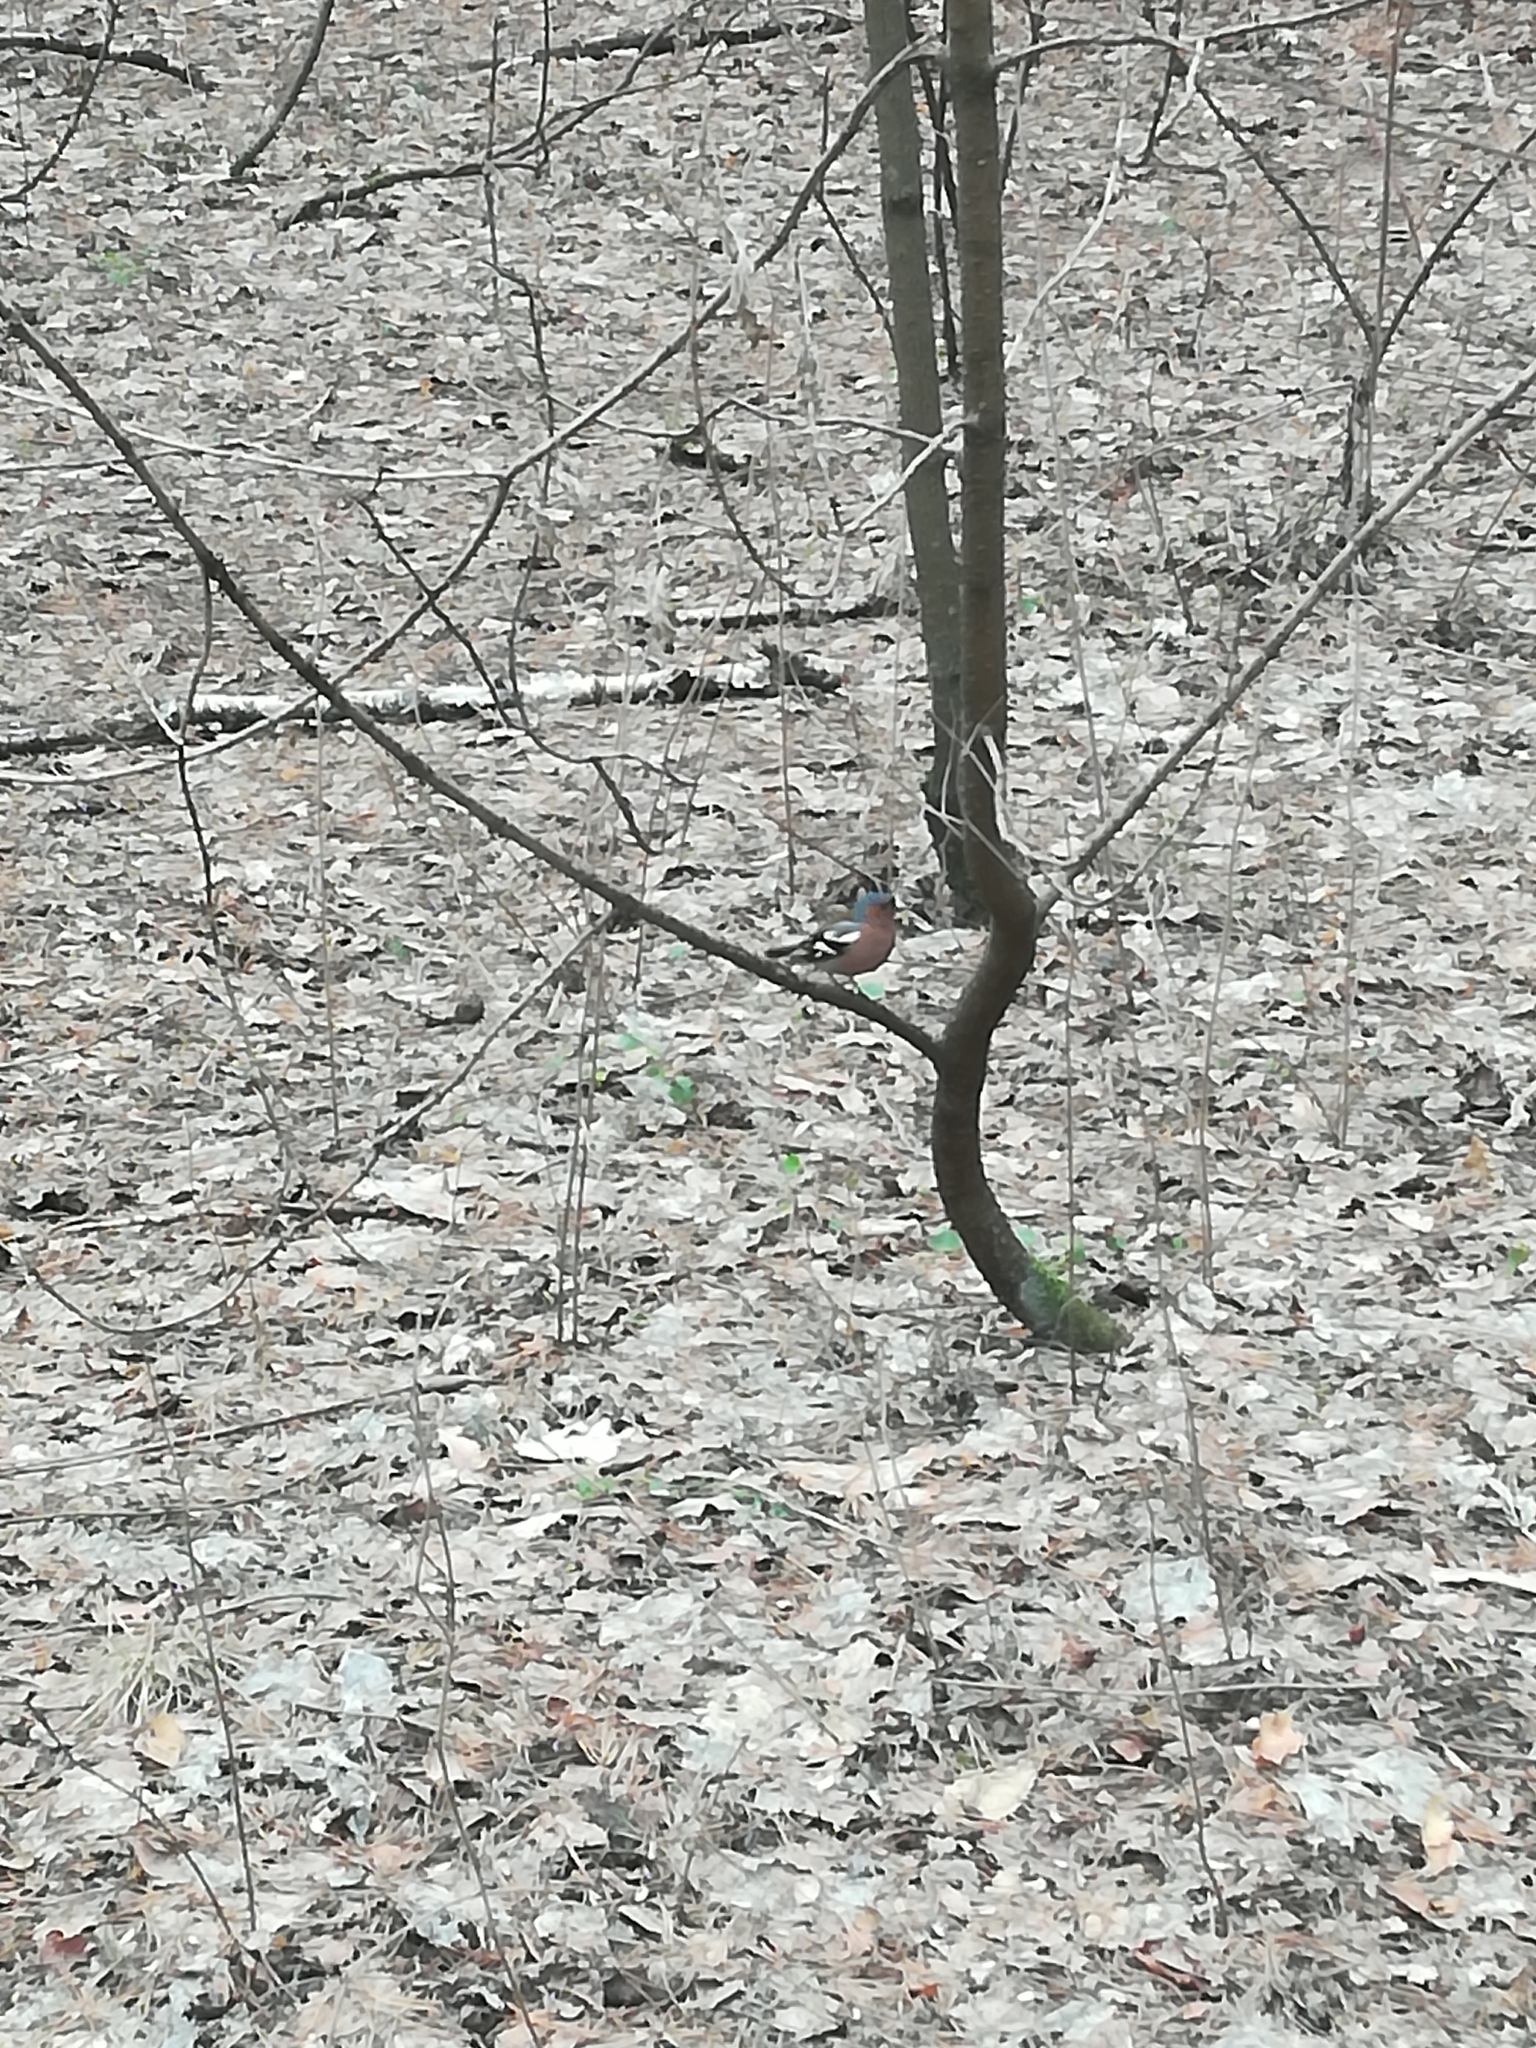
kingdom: Animalia
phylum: Chordata
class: Aves
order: Passeriformes
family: Fringillidae
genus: Fringilla
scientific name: Fringilla coelebs
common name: Common chaffinch
